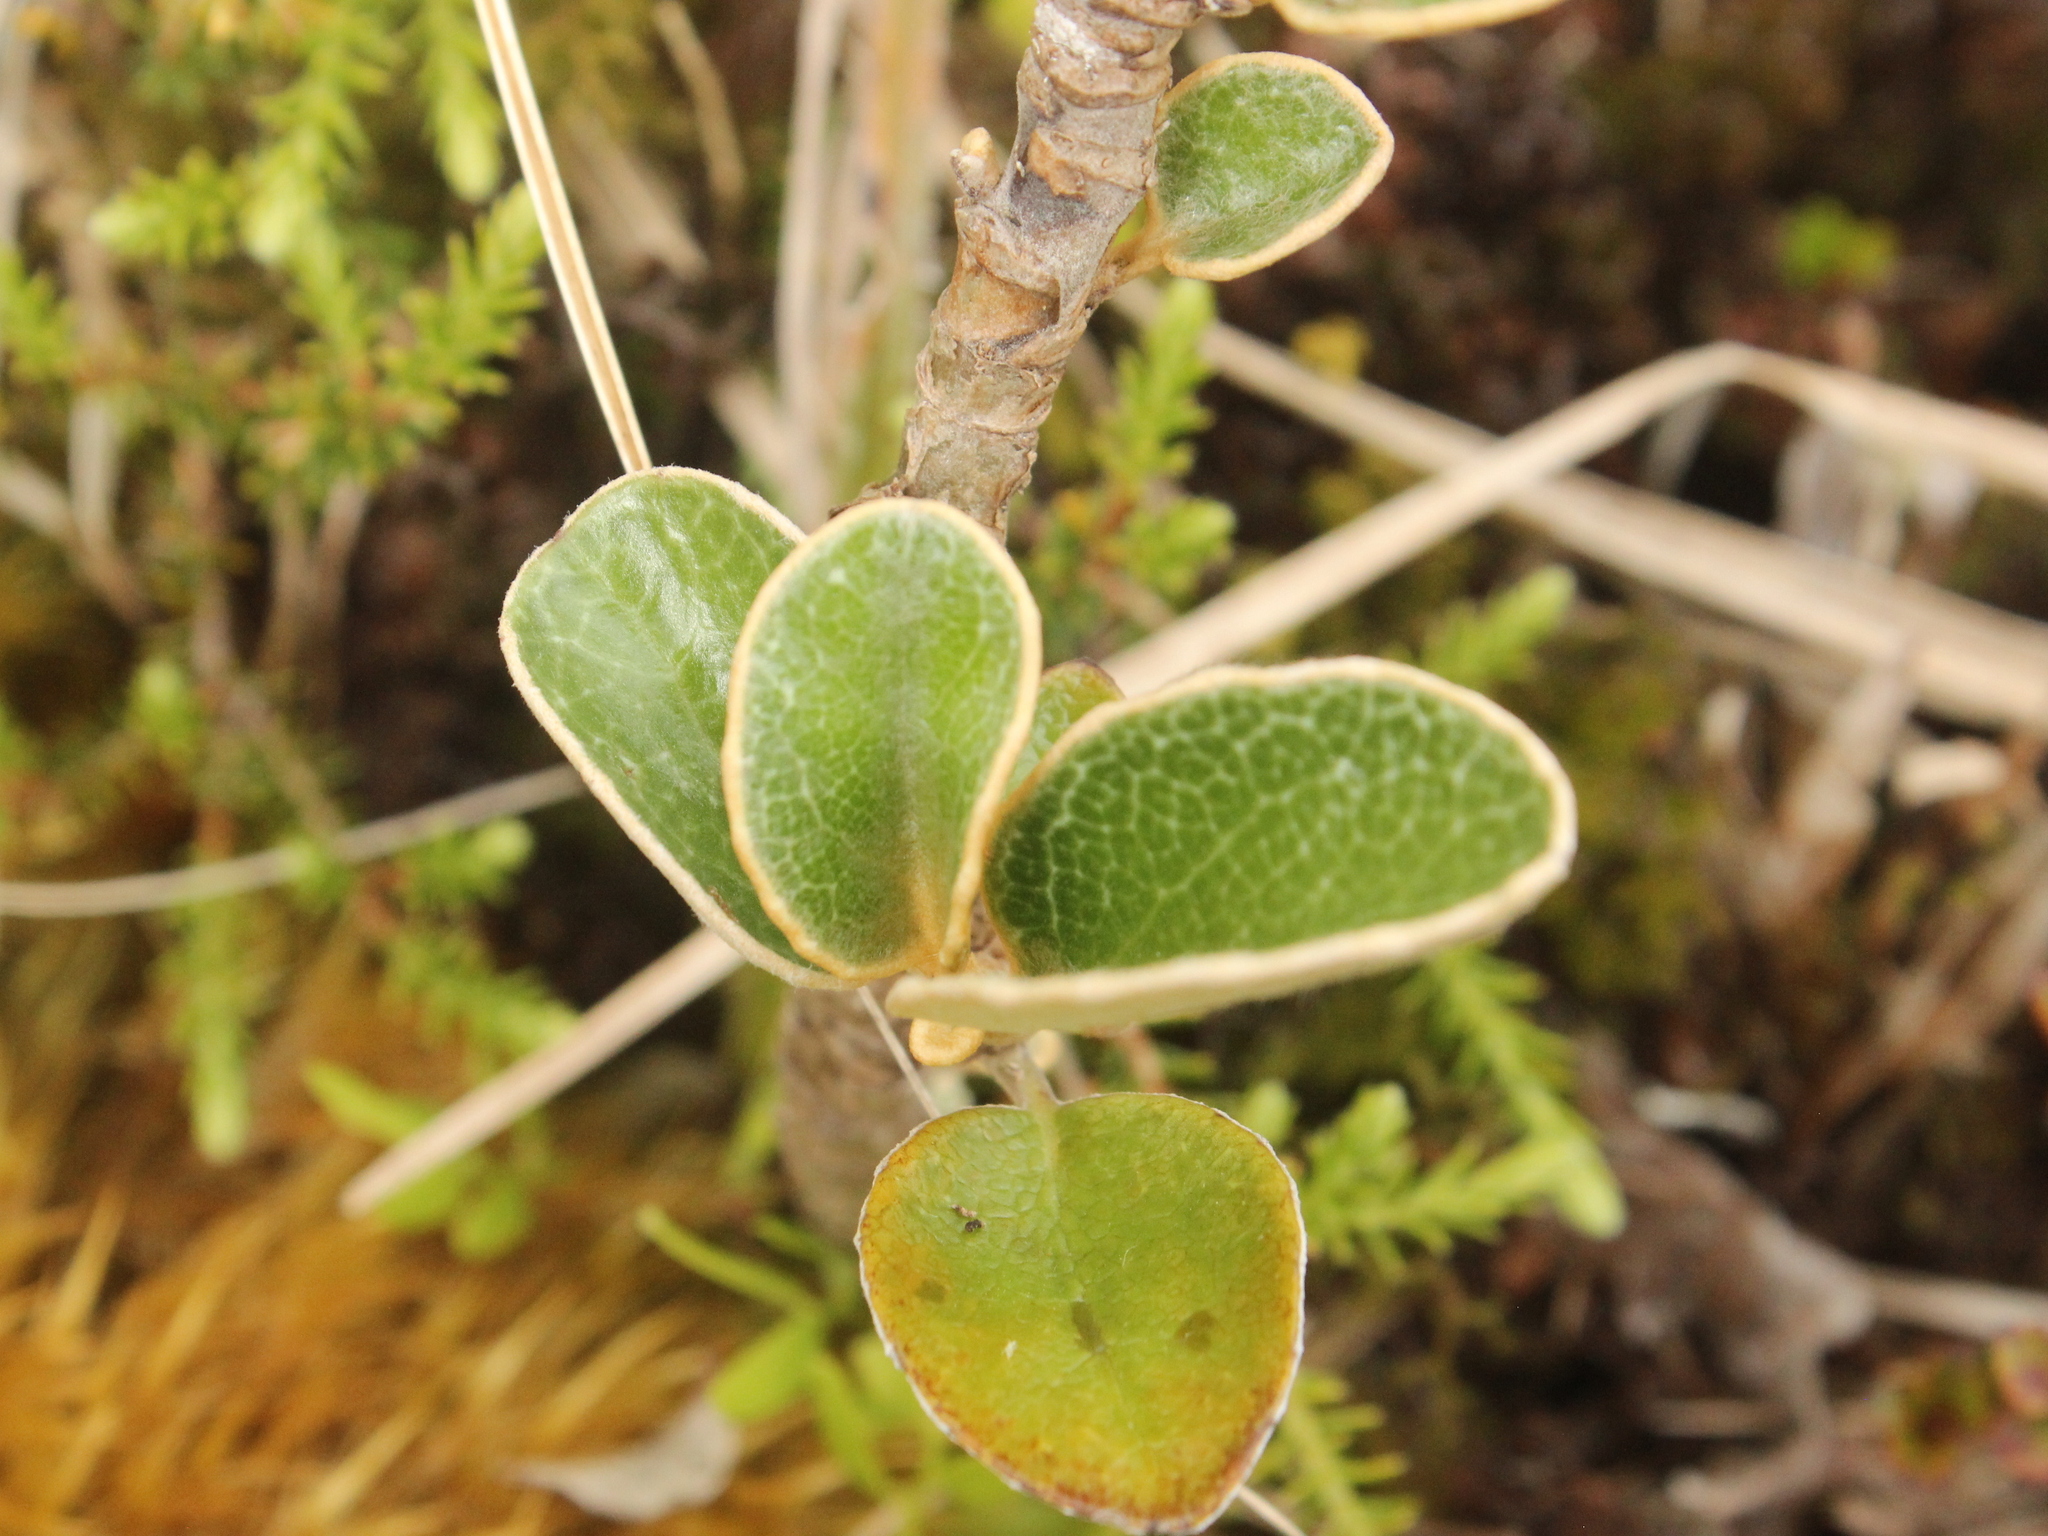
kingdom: Plantae
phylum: Tracheophyta
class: Magnoliopsida
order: Asterales
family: Asteraceae
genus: Brachyglottis
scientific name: Brachyglottis elaeagnifolia
